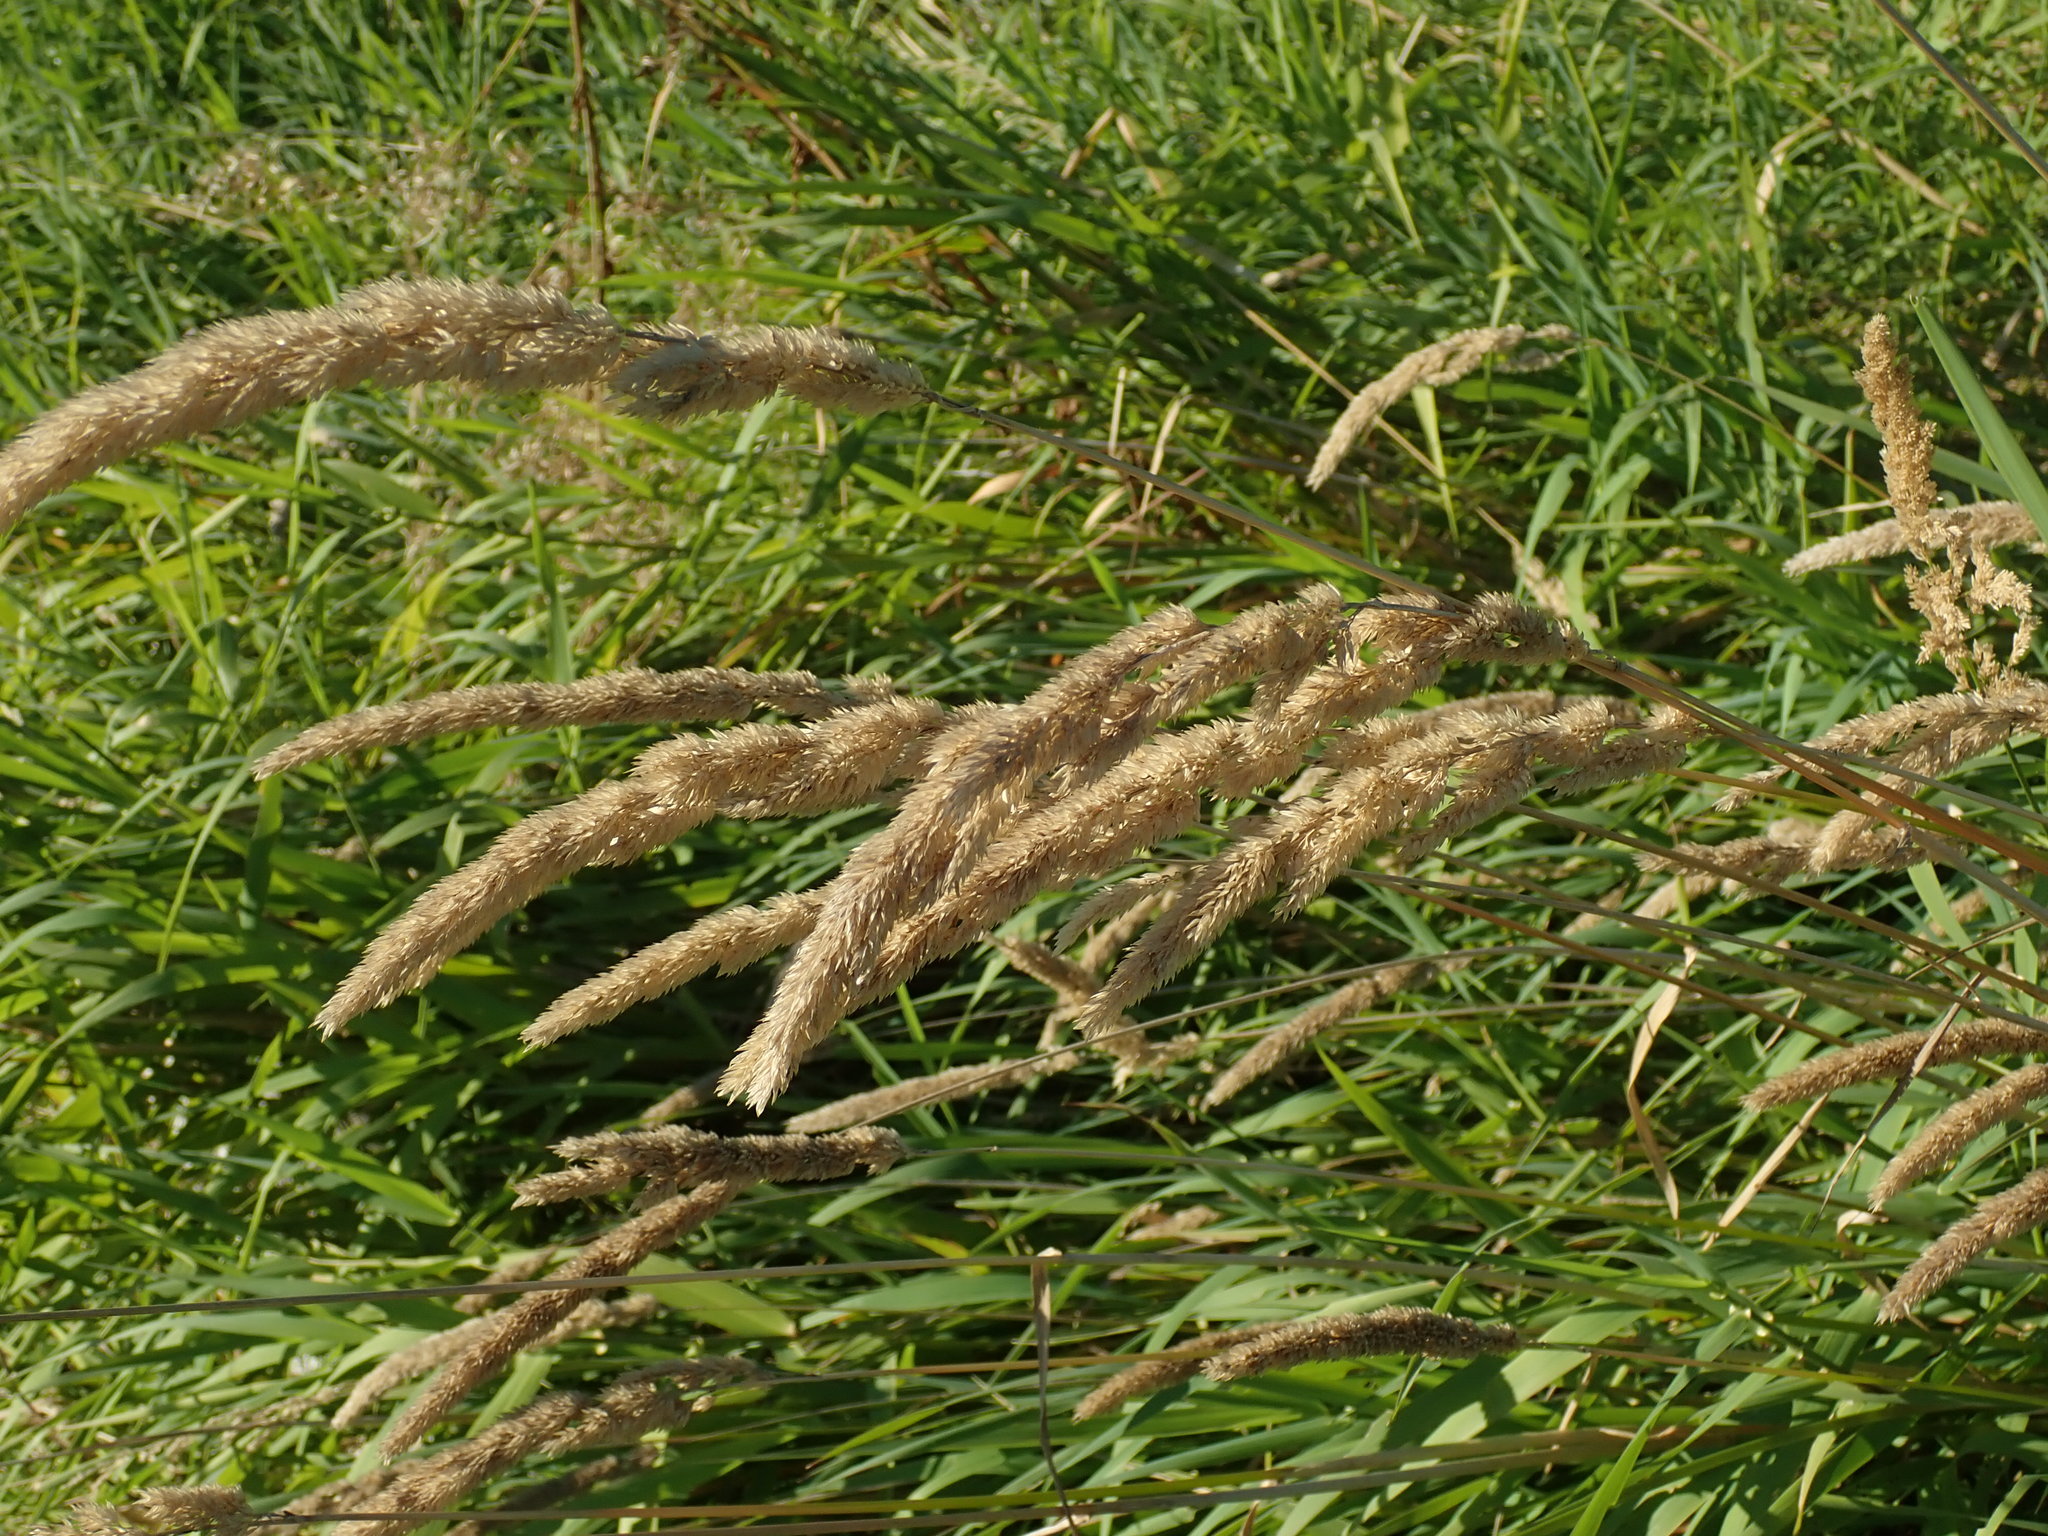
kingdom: Plantae
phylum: Tracheophyta
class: Liliopsida
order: Poales
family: Poaceae
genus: Phalaris
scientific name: Phalaris arundinacea
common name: Reed canary-grass
